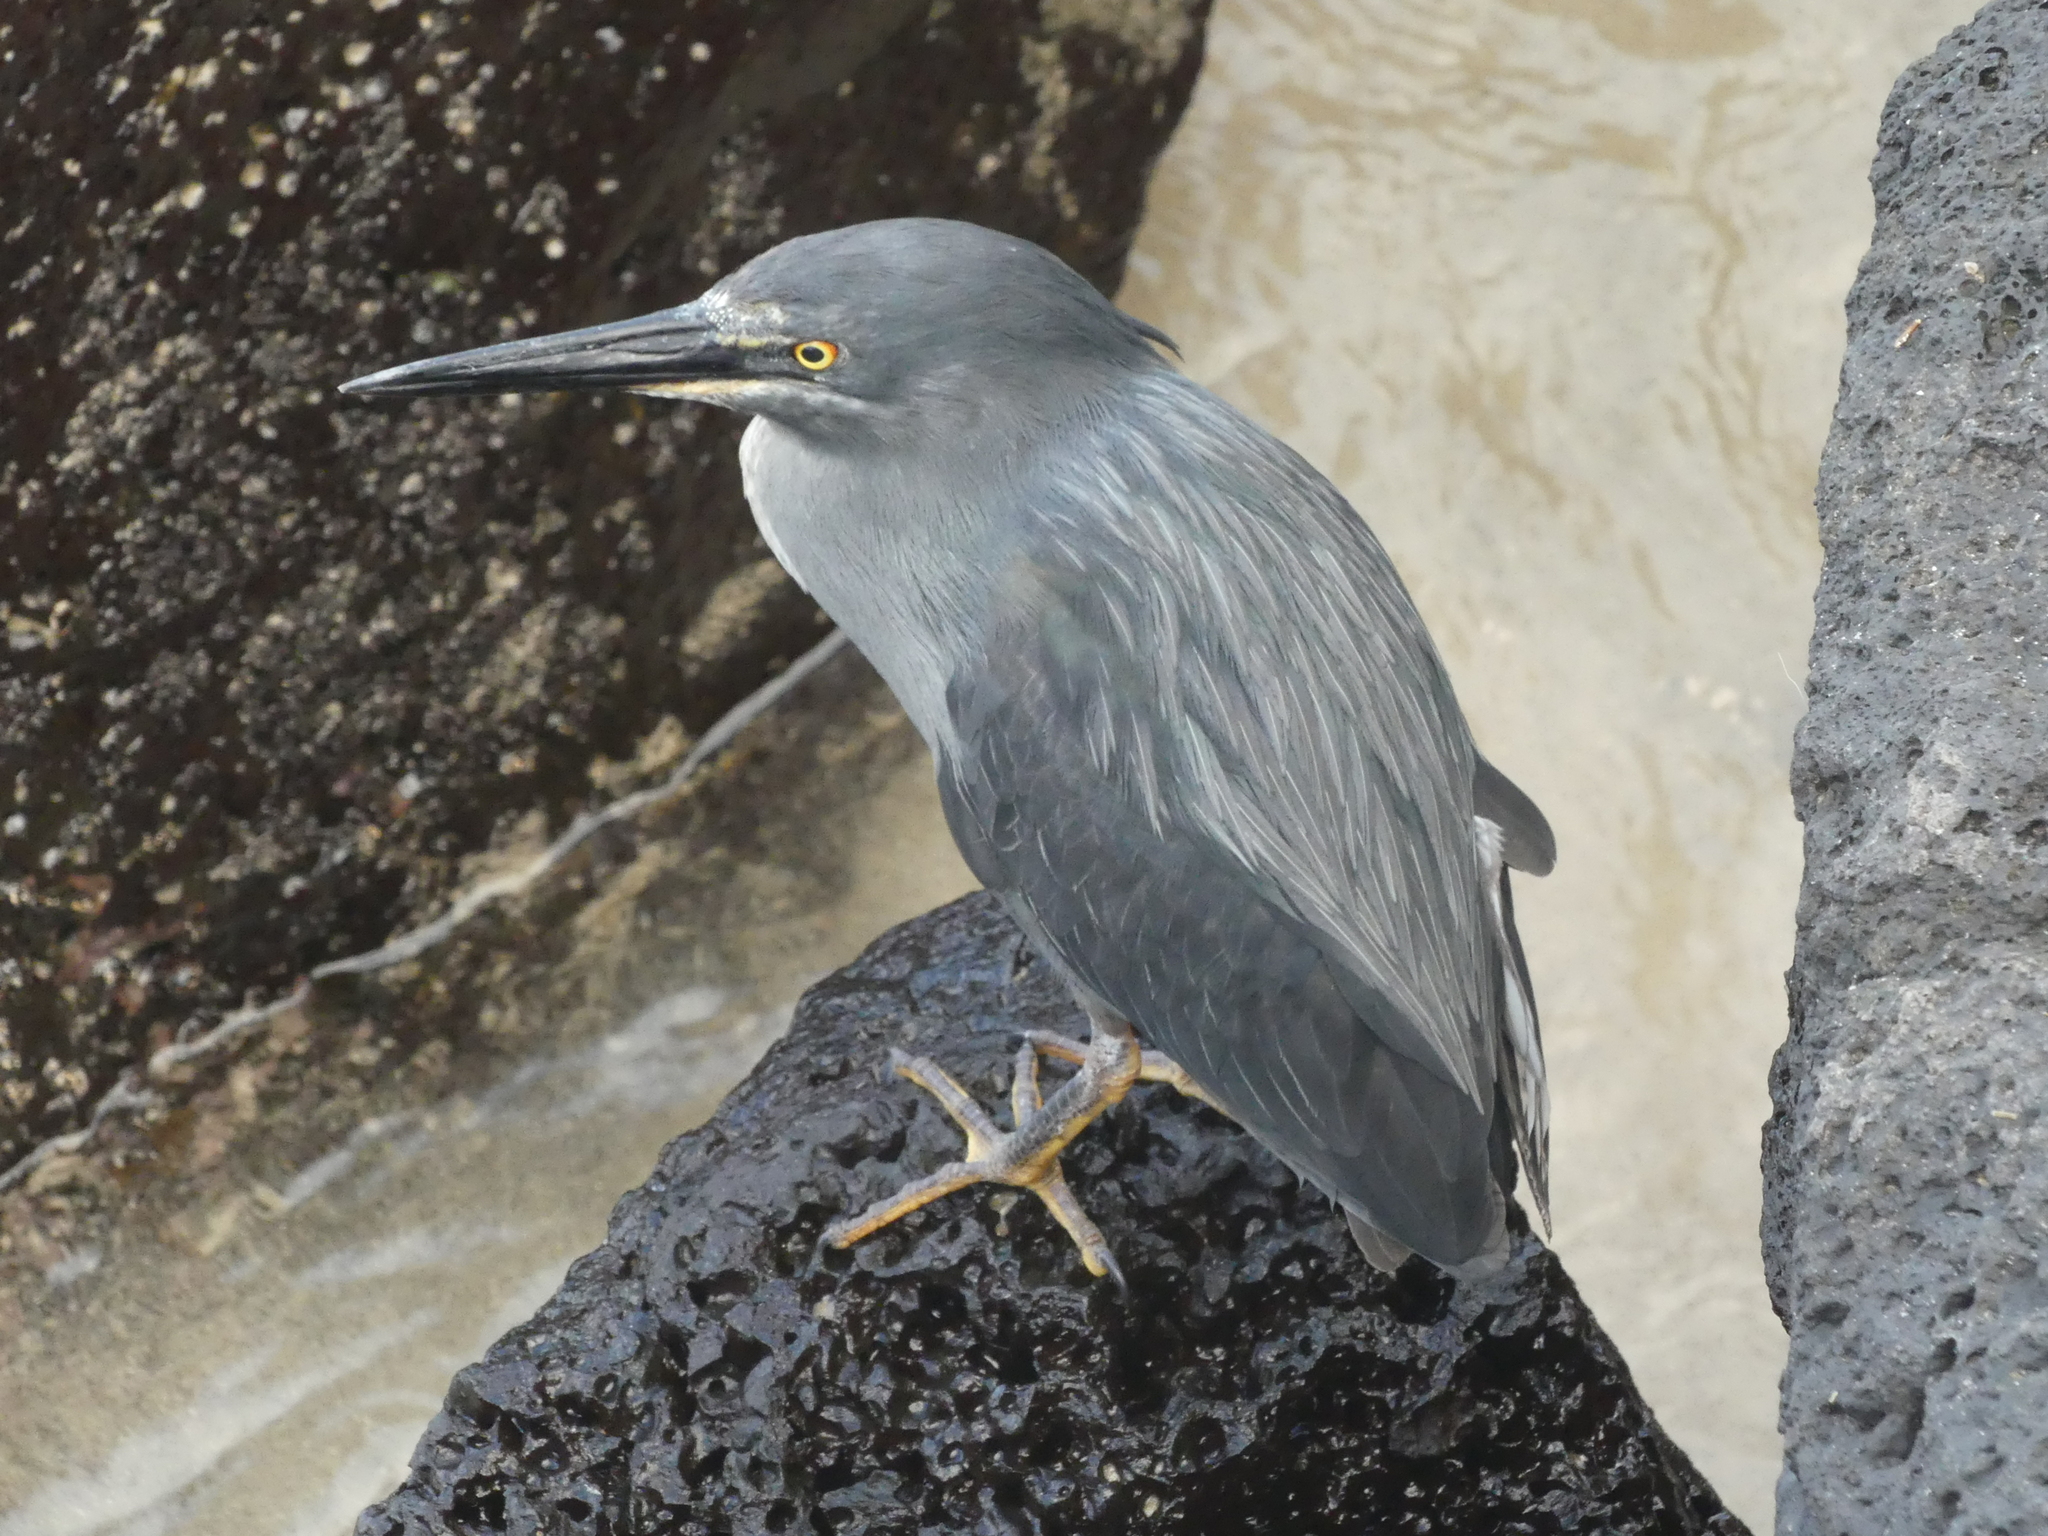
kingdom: Animalia
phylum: Chordata
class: Aves
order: Pelecaniformes
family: Ardeidae
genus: Butorides
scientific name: Butorides striata
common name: Striated heron
